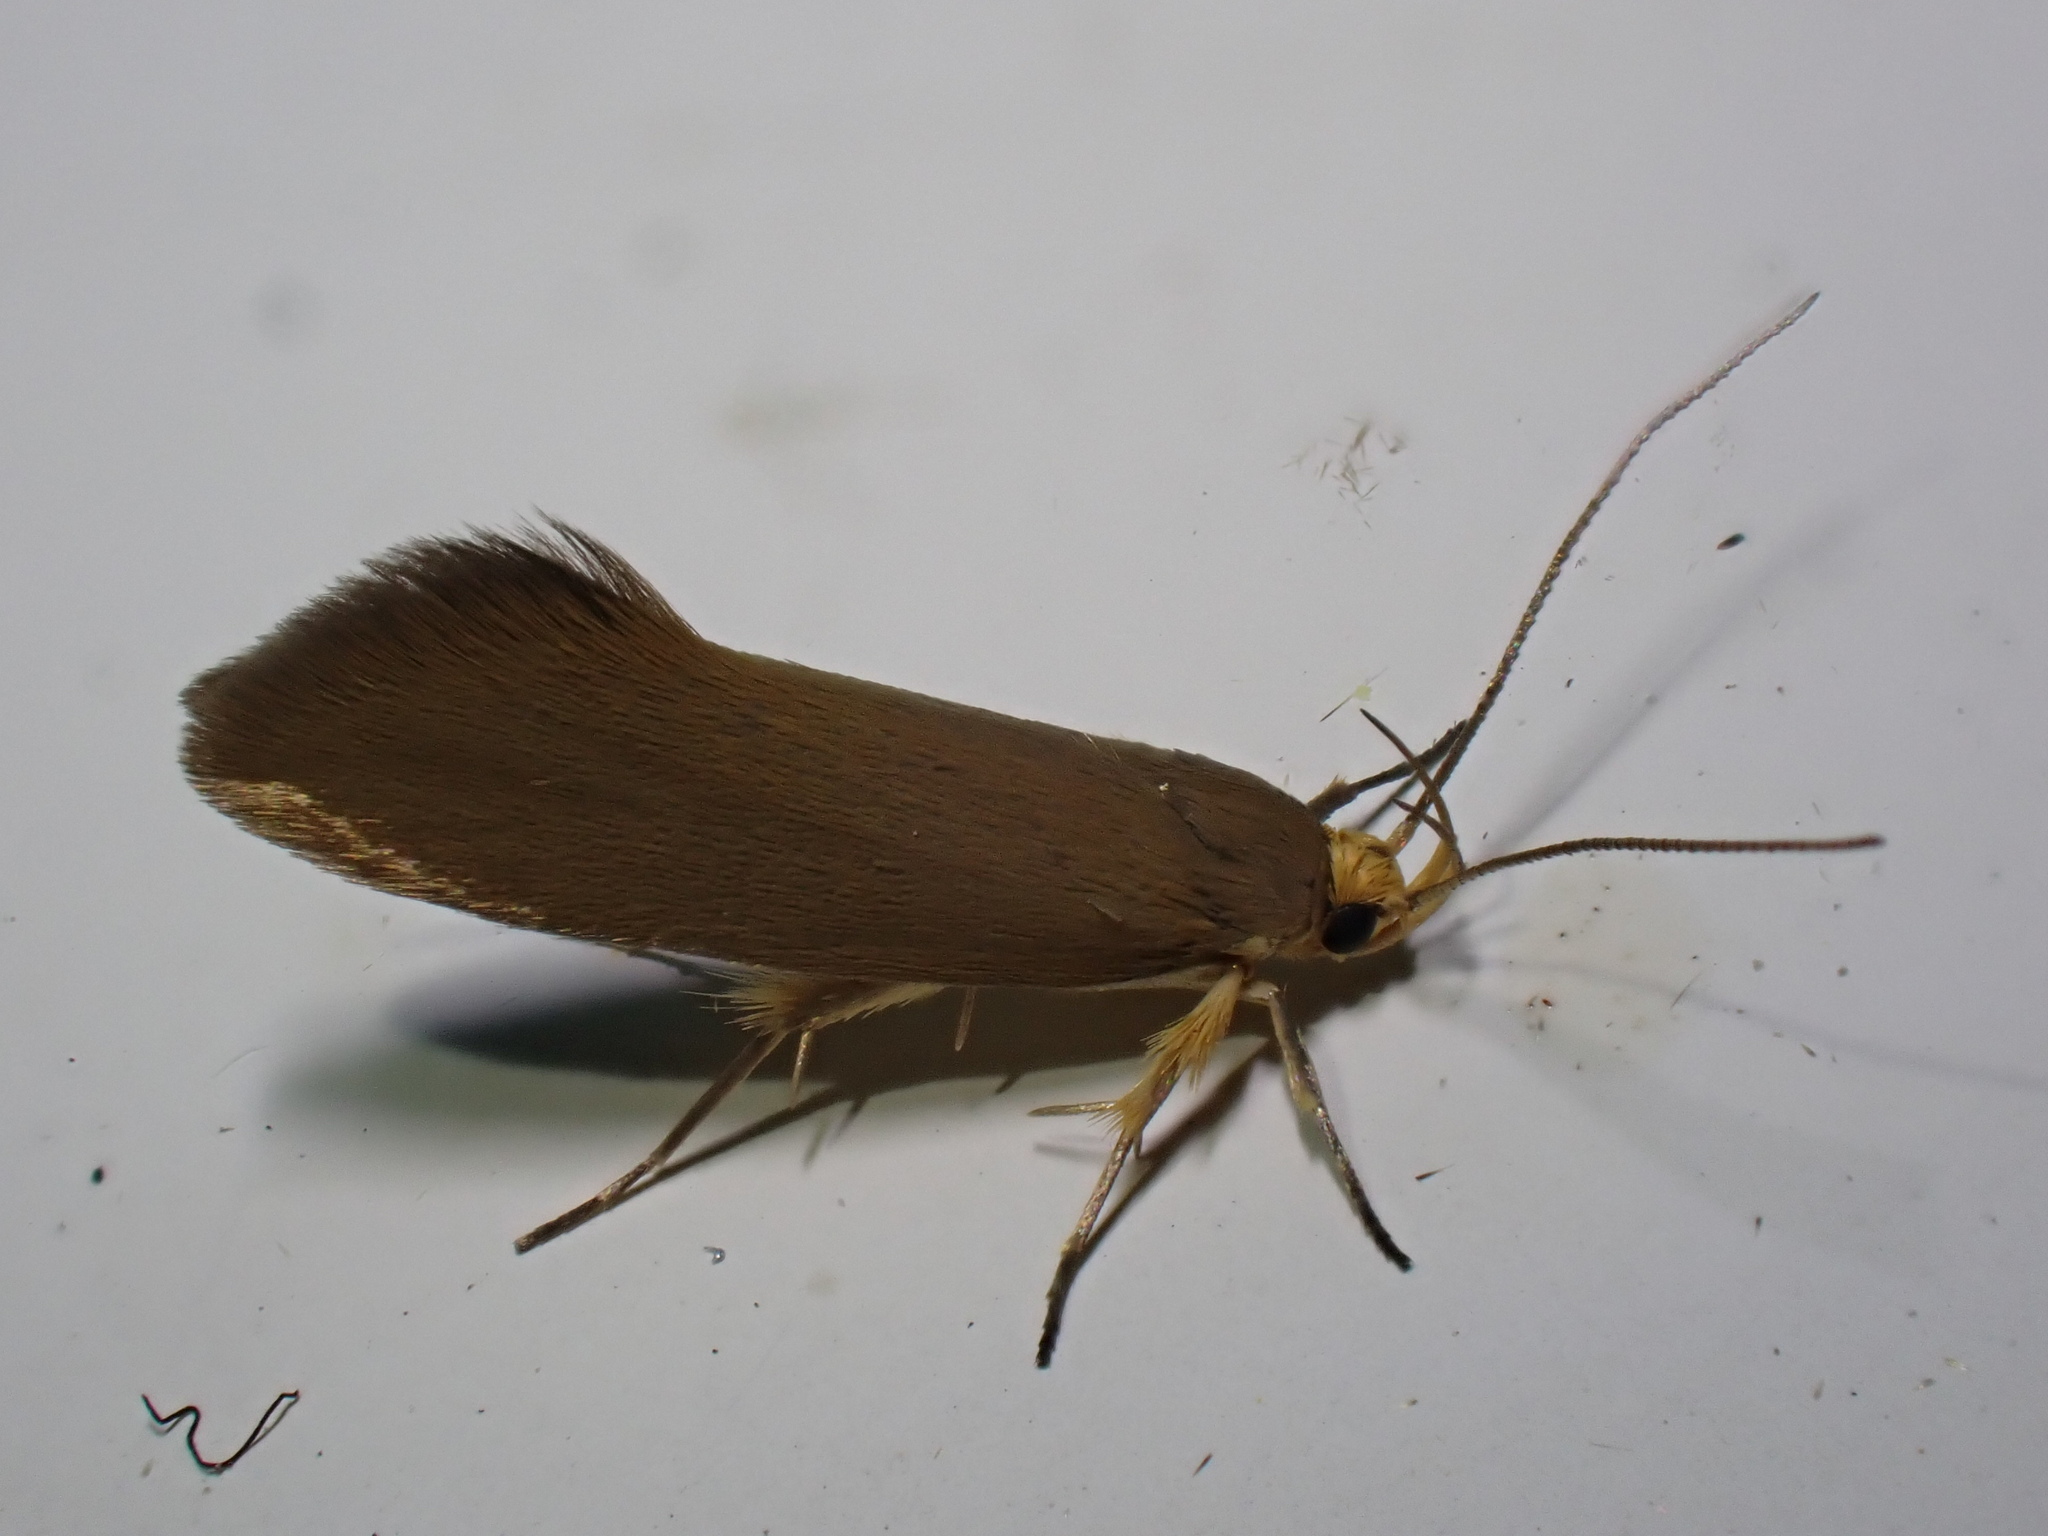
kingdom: Animalia
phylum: Arthropoda
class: Insecta
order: Lepidoptera
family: Oecophoridae
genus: Borkhausenia
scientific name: Borkhausenia Crassa unitella
